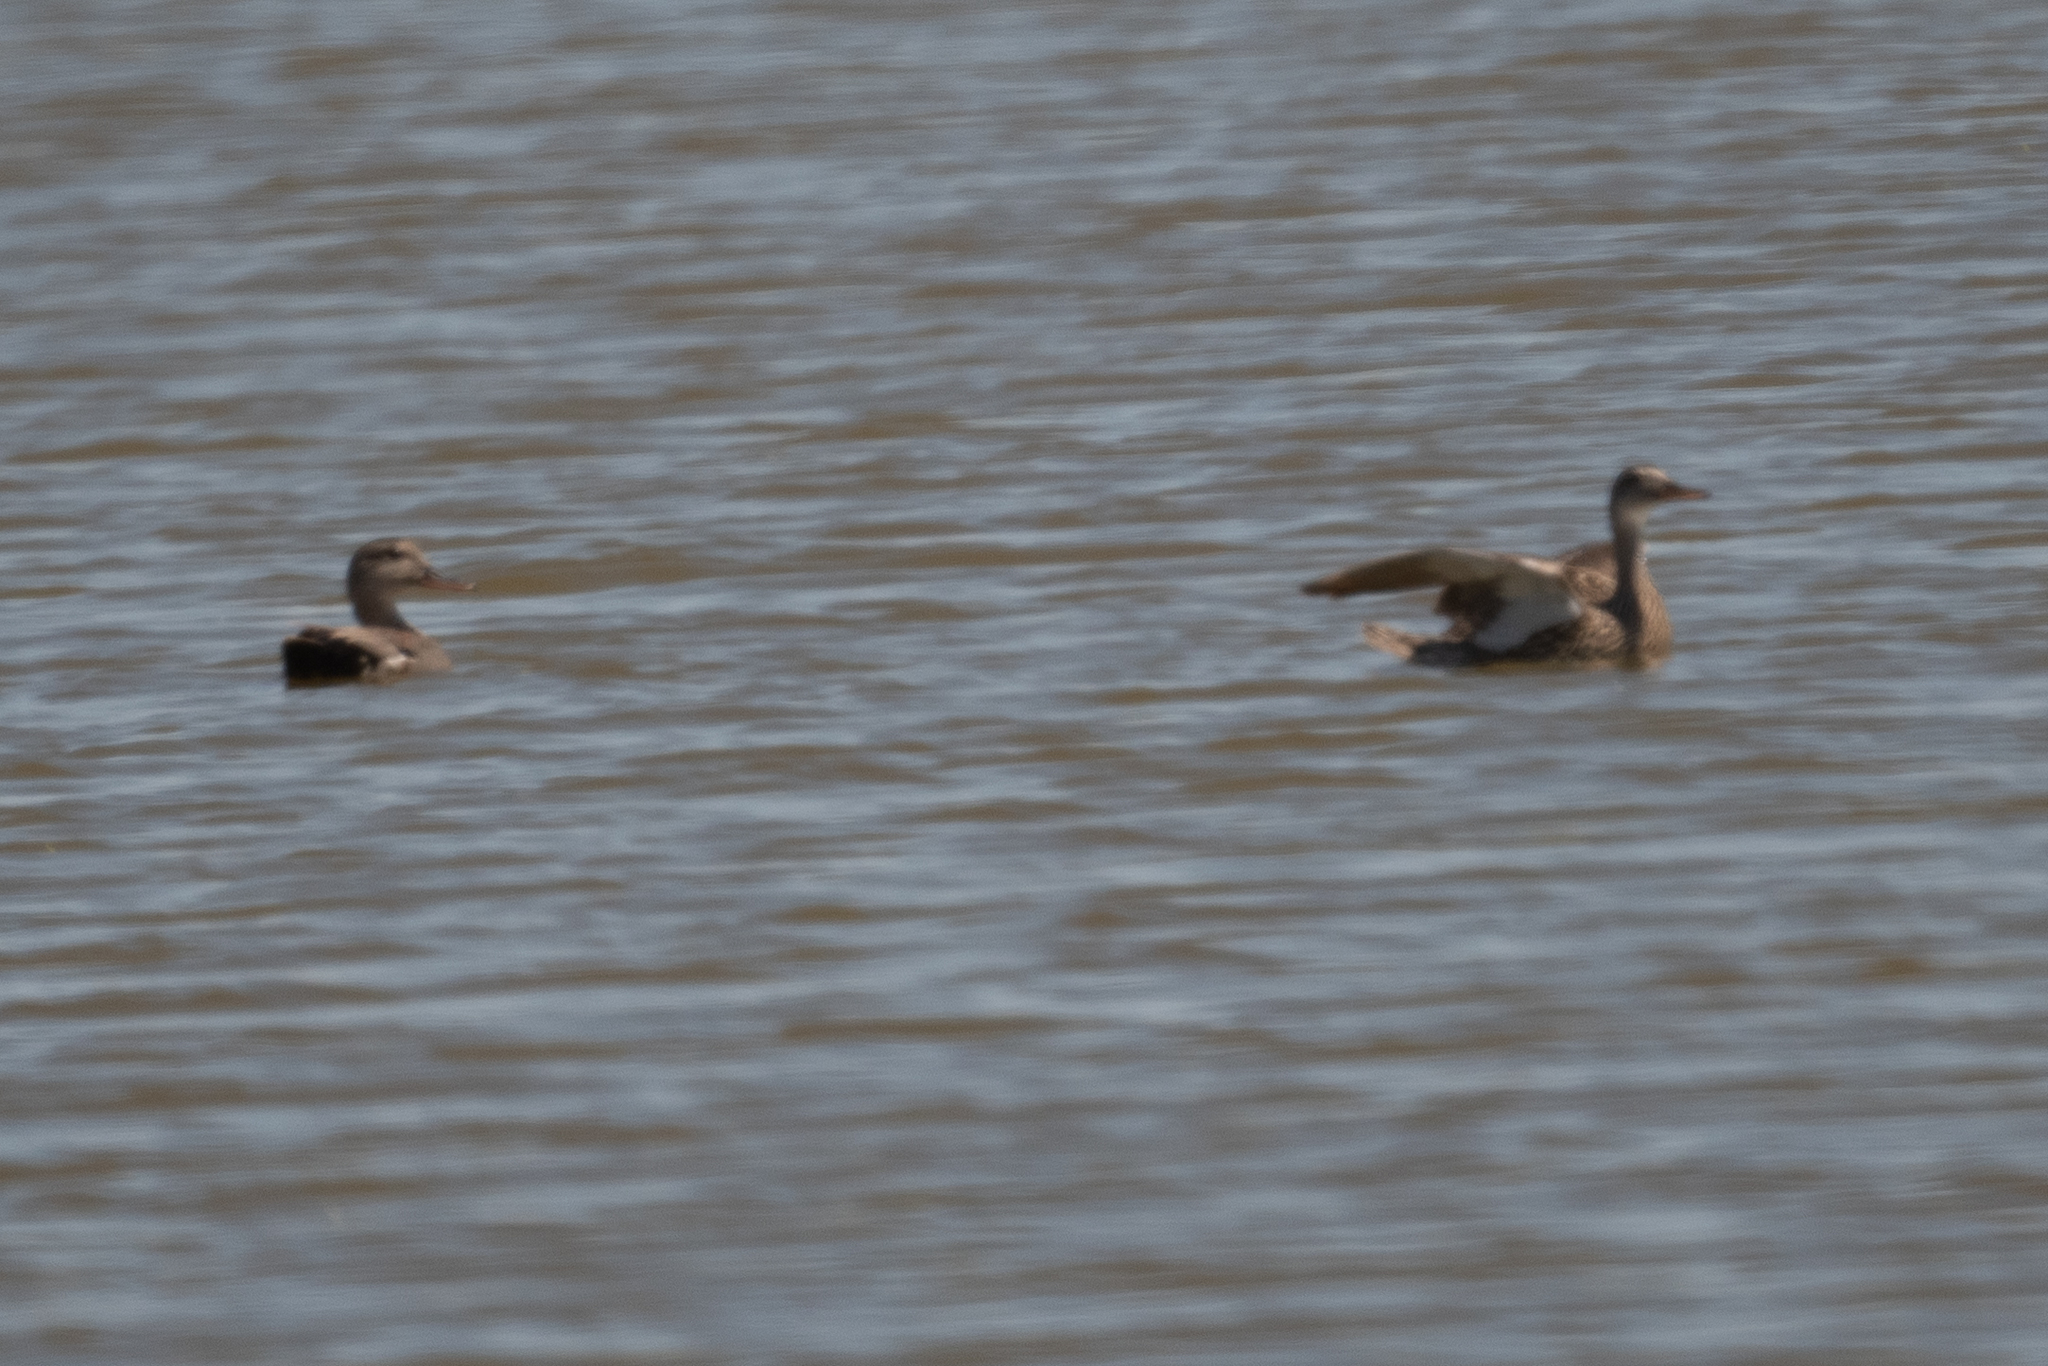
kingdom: Animalia
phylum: Chordata
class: Aves
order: Anseriformes
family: Anatidae
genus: Mareca
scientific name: Mareca strepera
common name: Gadwall
